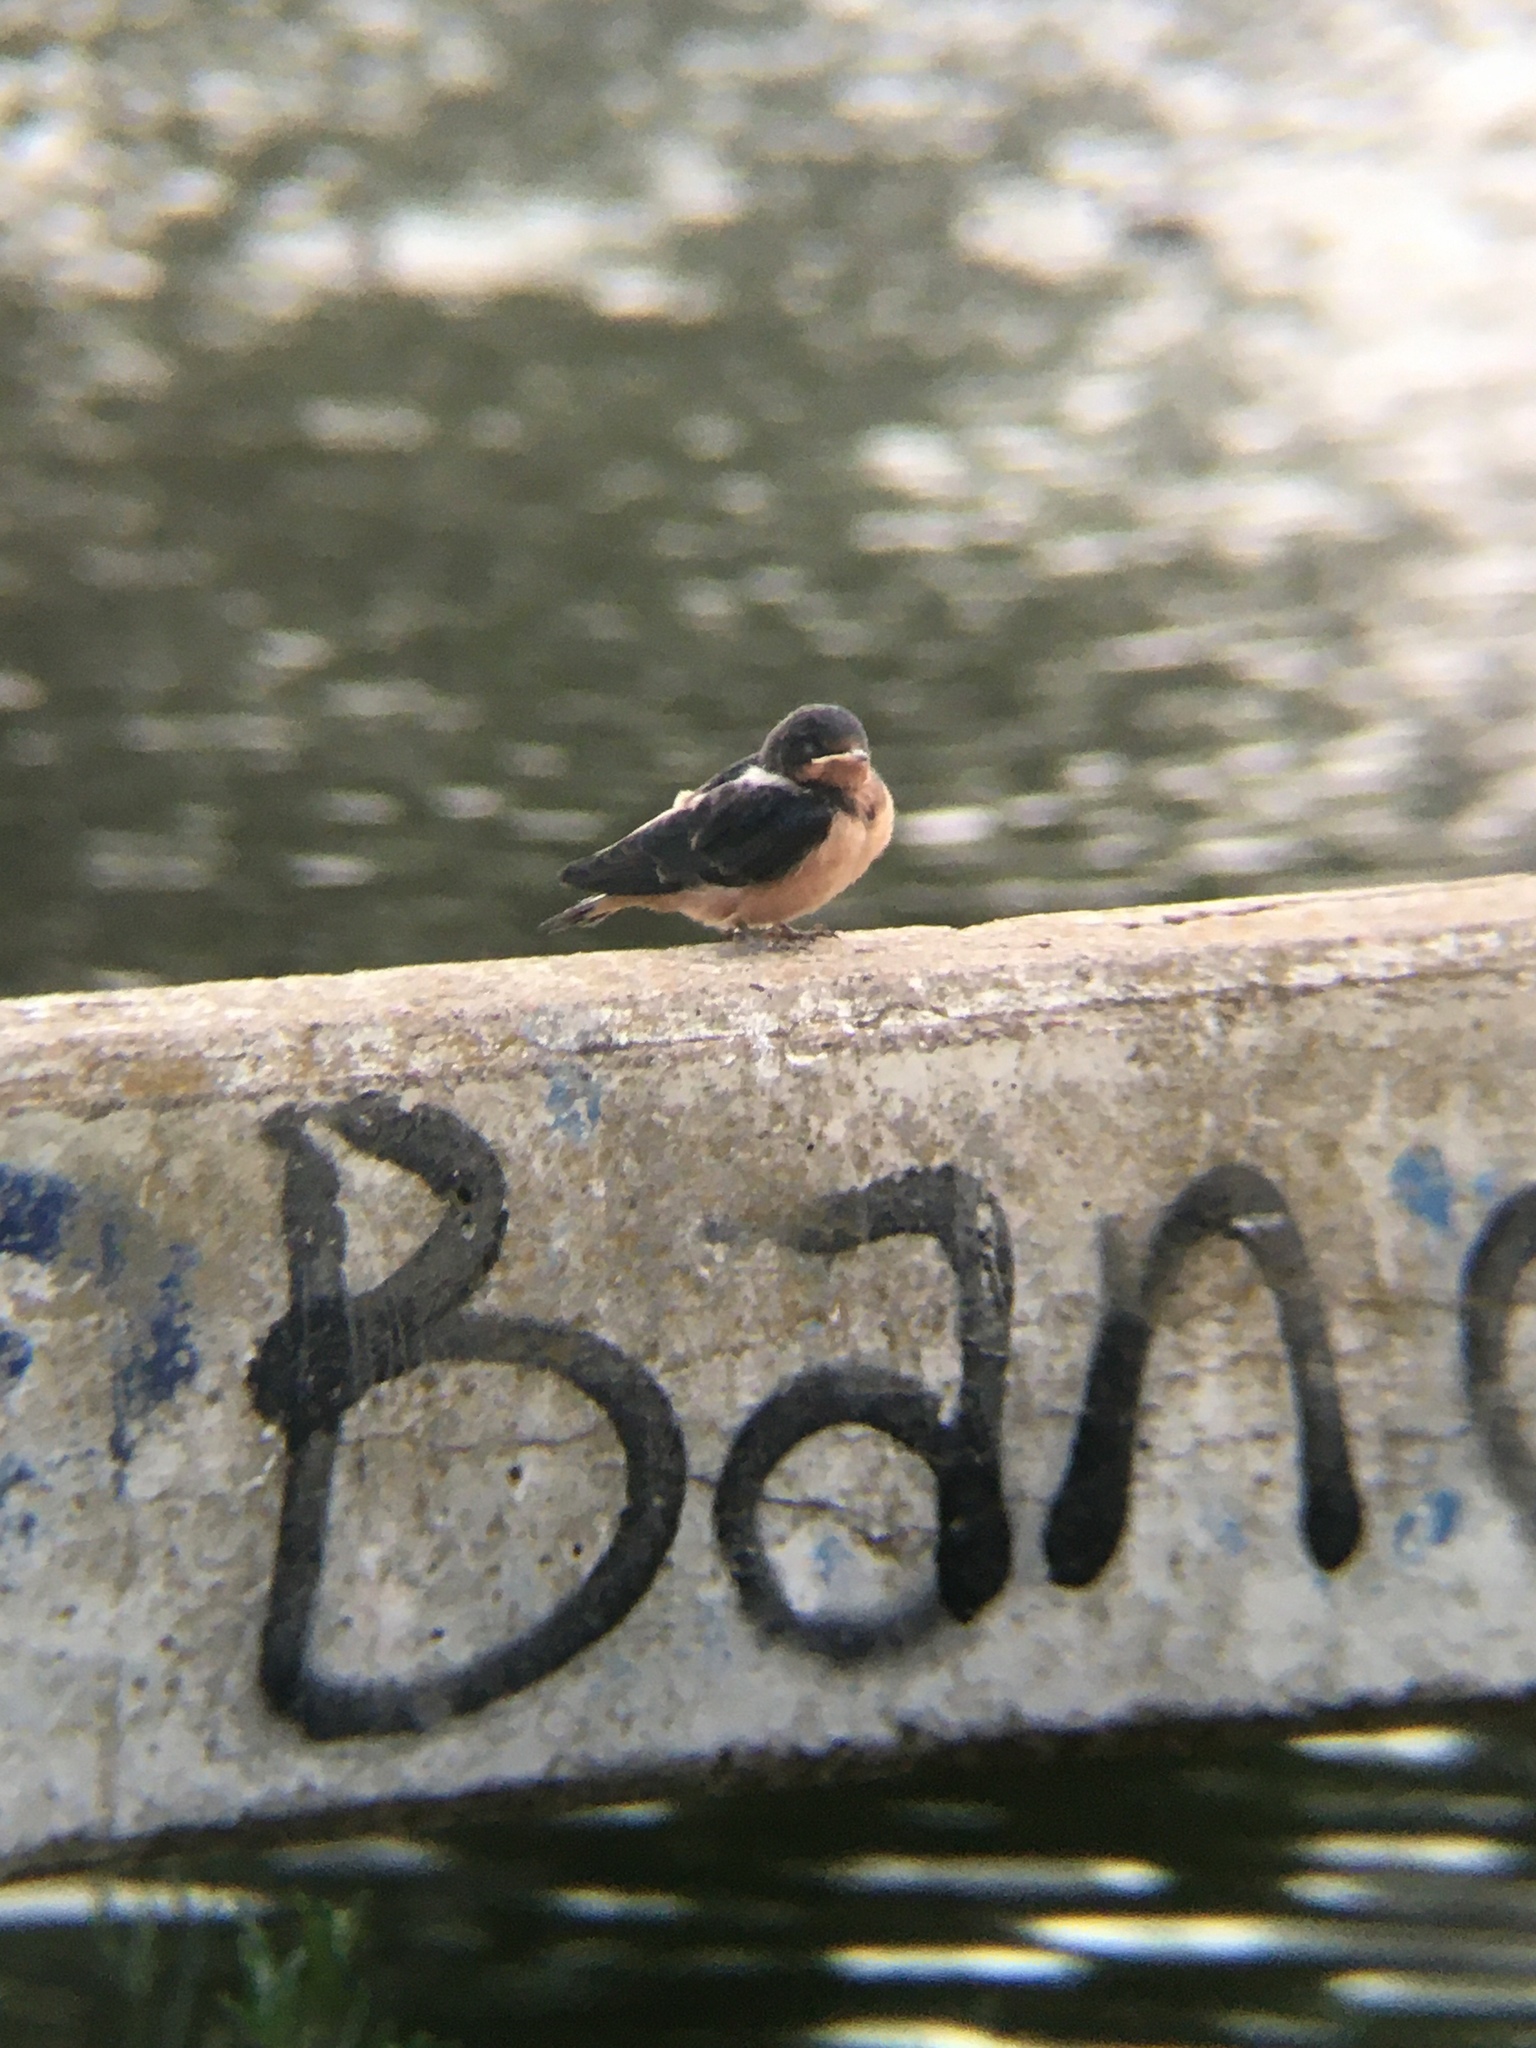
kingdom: Animalia
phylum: Chordata
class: Aves
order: Passeriformes
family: Hirundinidae
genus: Hirundo
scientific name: Hirundo rustica
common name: Barn swallow
